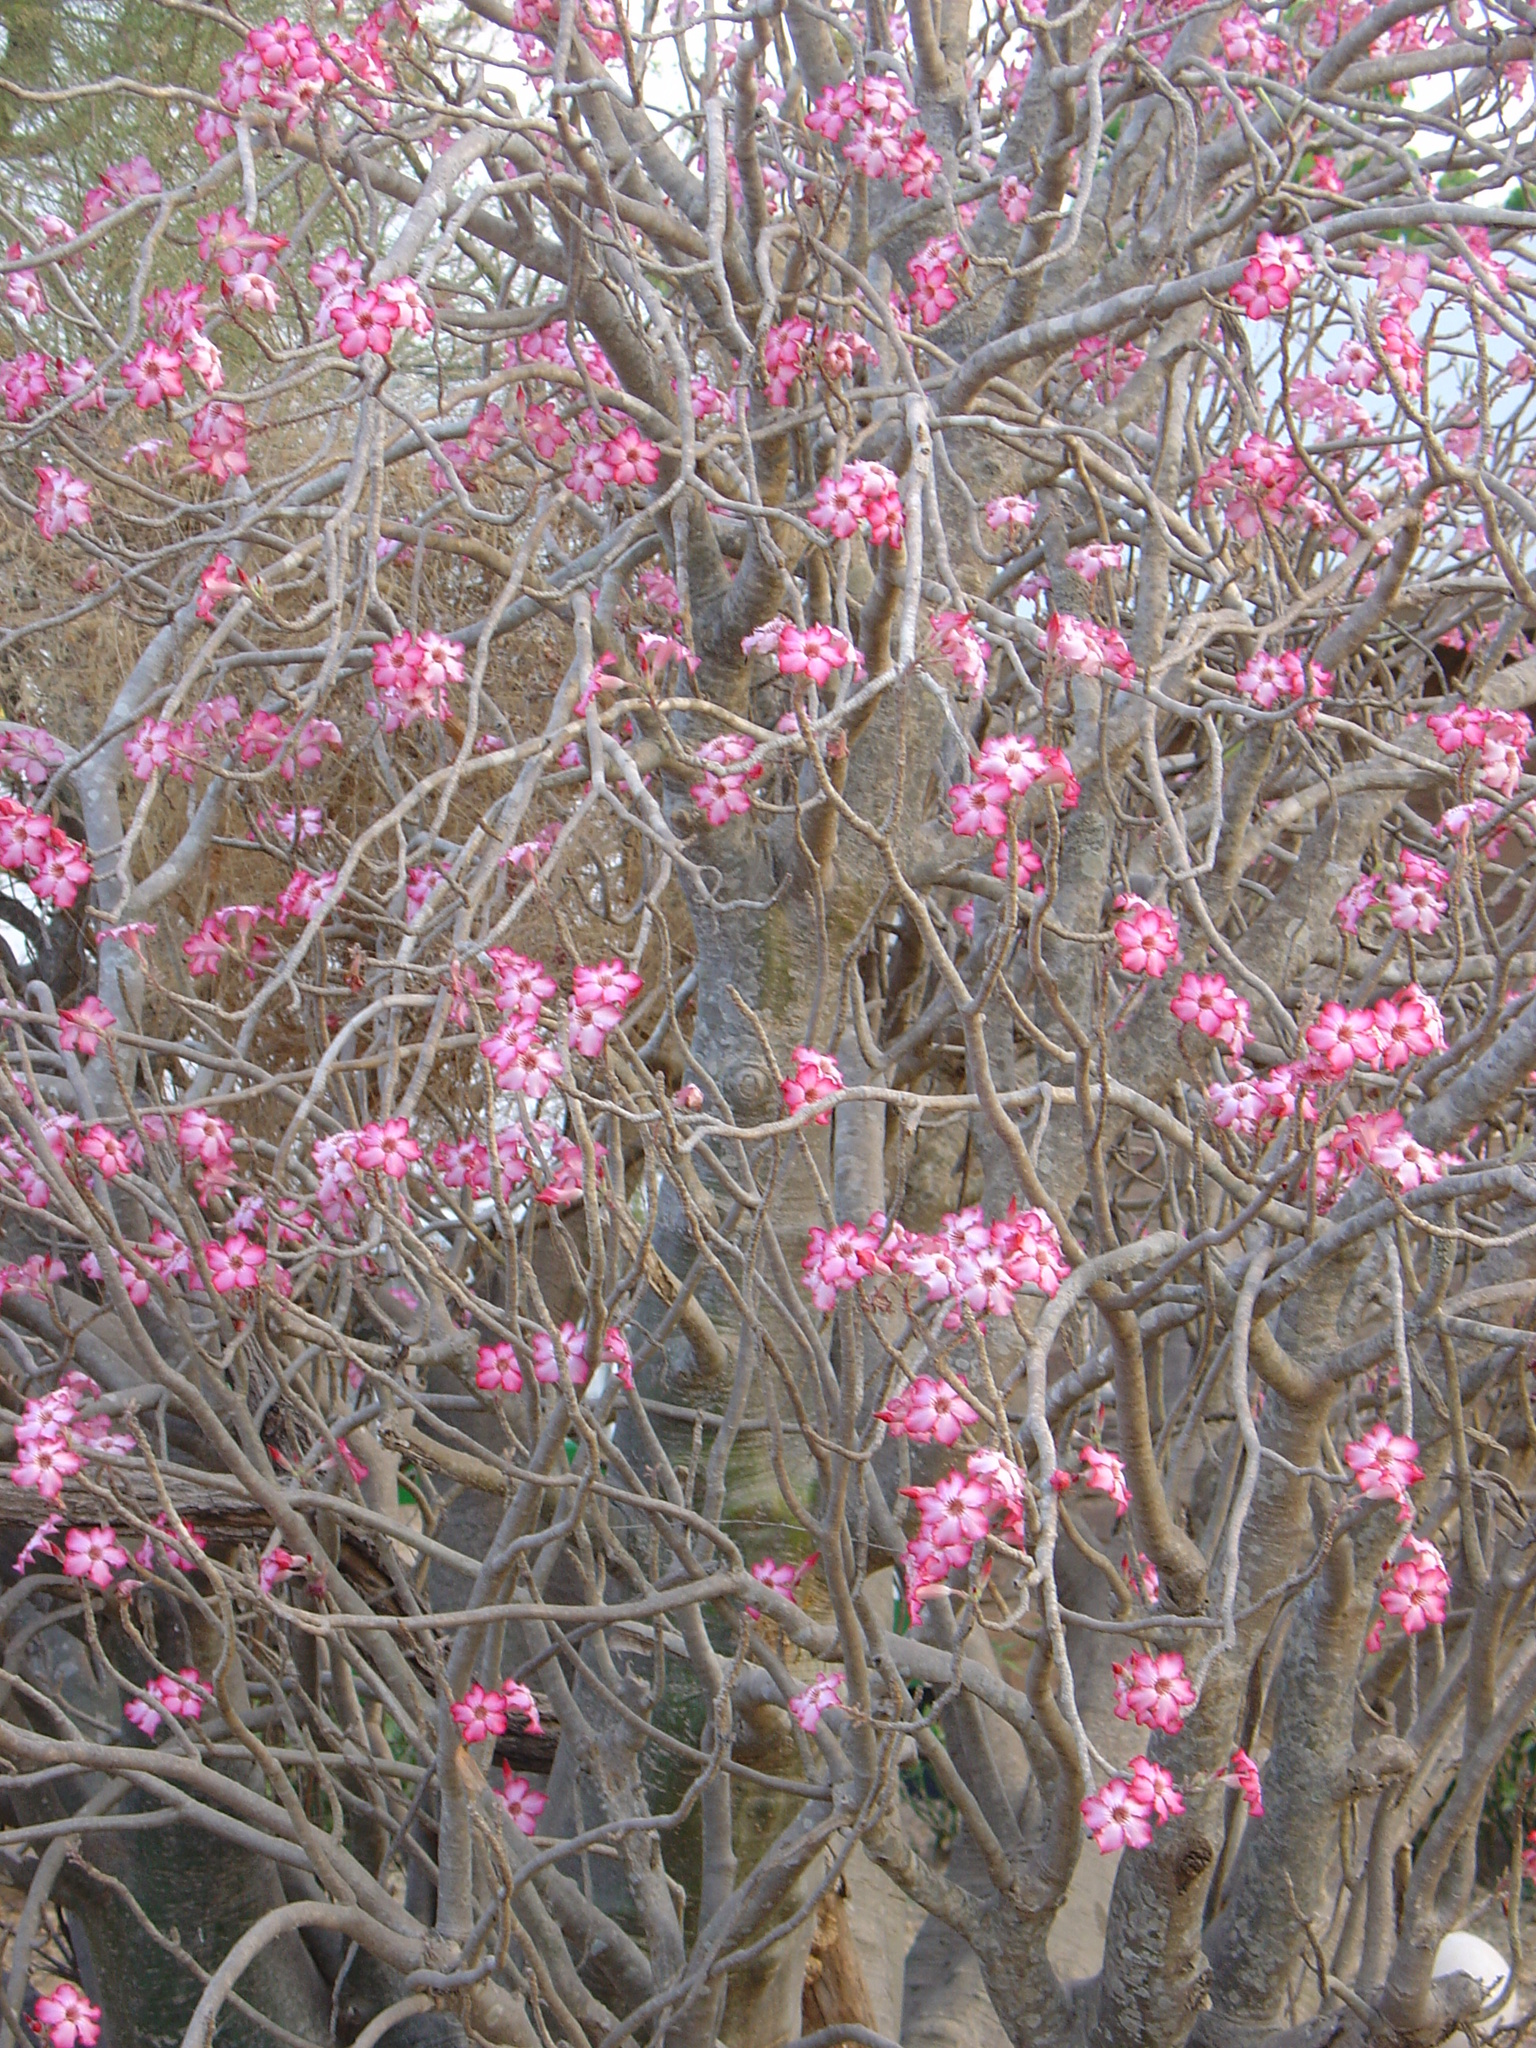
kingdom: Plantae
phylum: Tracheophyta
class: Magnoliopsida
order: Gentianales
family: Apocynaceae
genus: Adenium
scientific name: Adenium obesum
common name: Desert-rose
